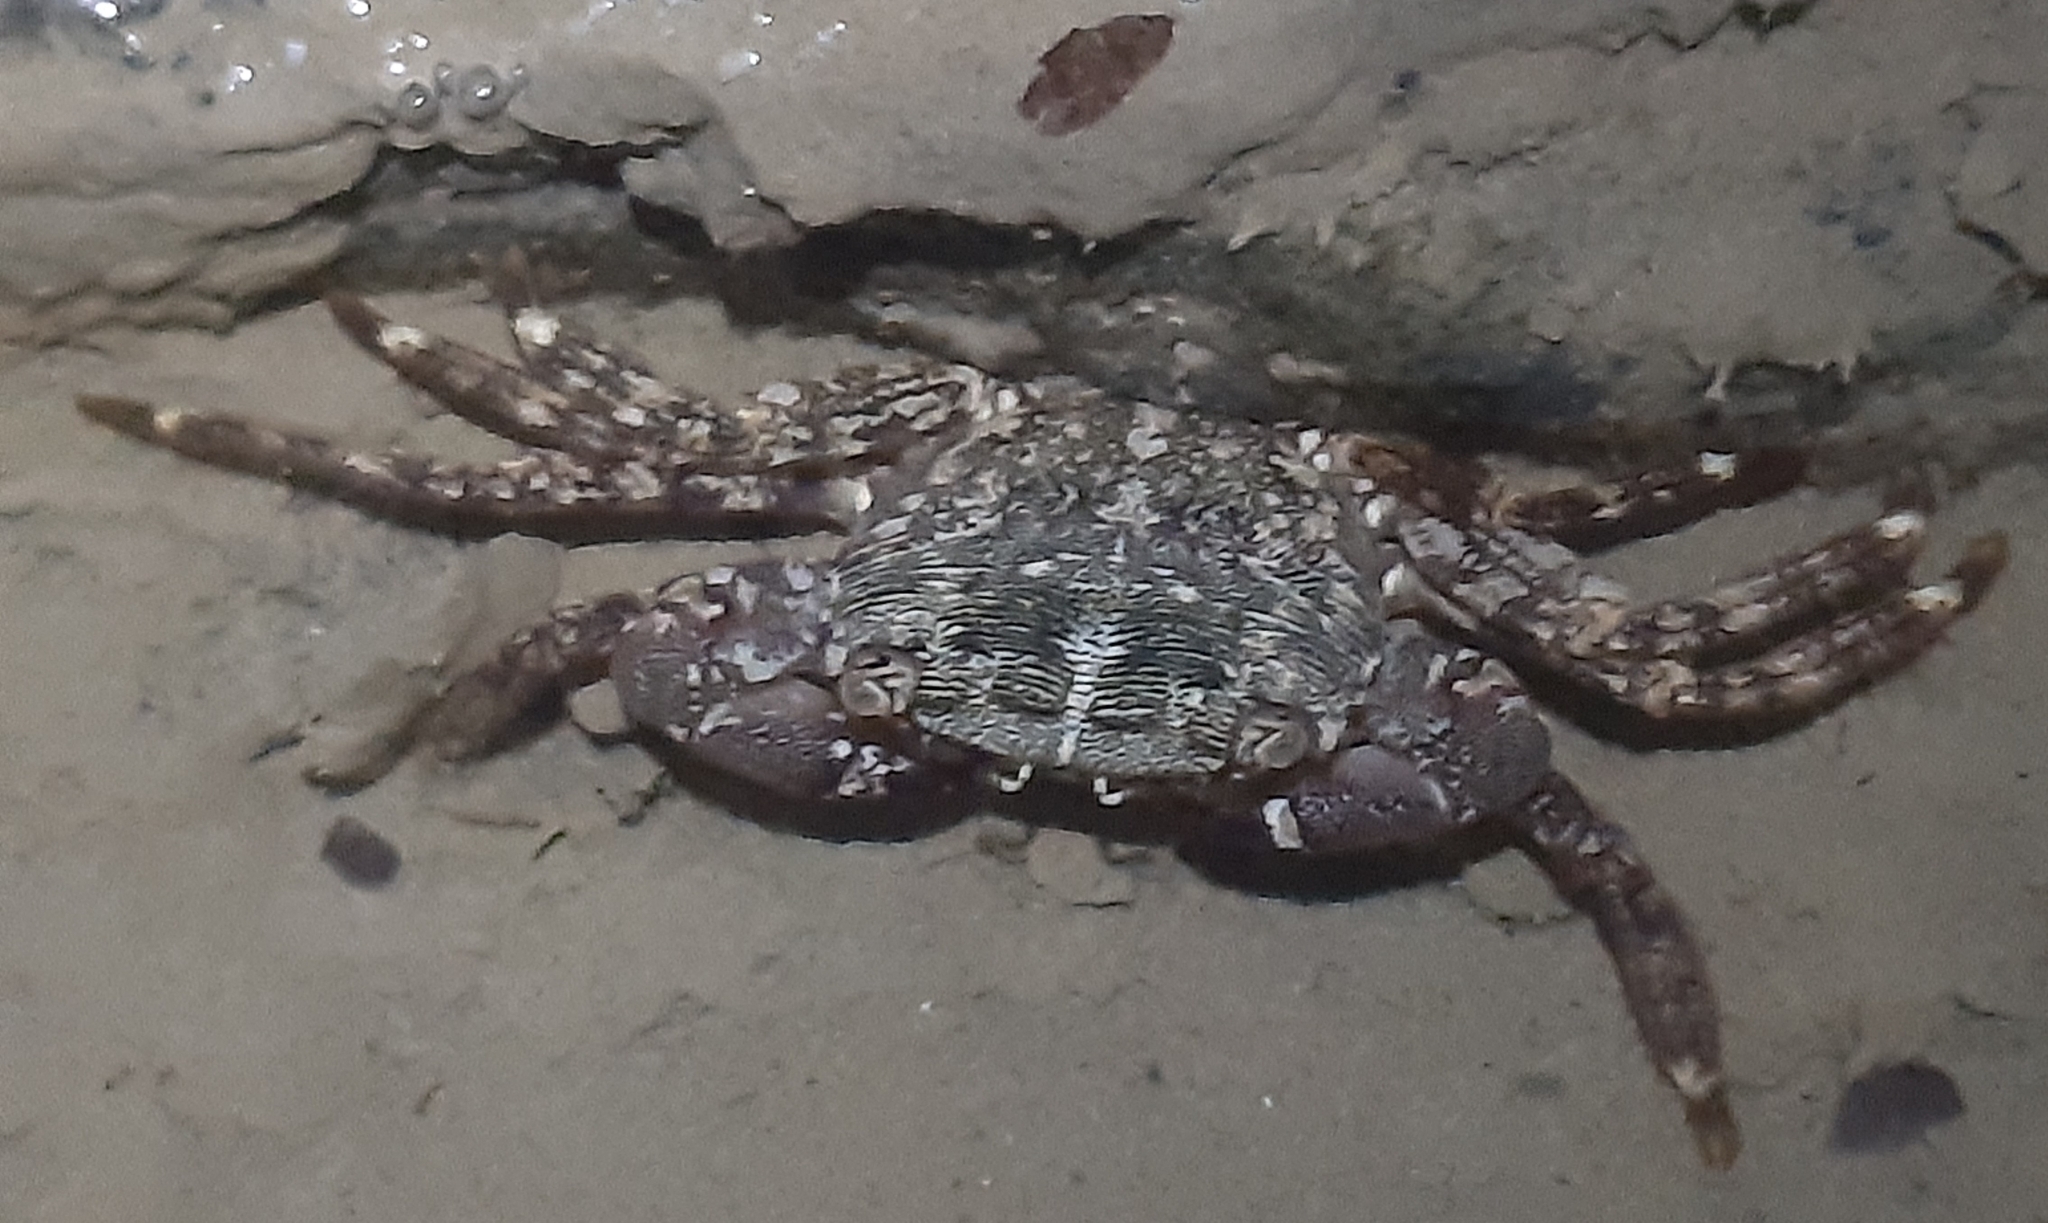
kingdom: Animalia
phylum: Arthropoda
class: Malacostraca
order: Decapoda
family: Grapsidae
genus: Pachygrapsus
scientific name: Pachygrapsus marmoratus
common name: Marbled rock crab
